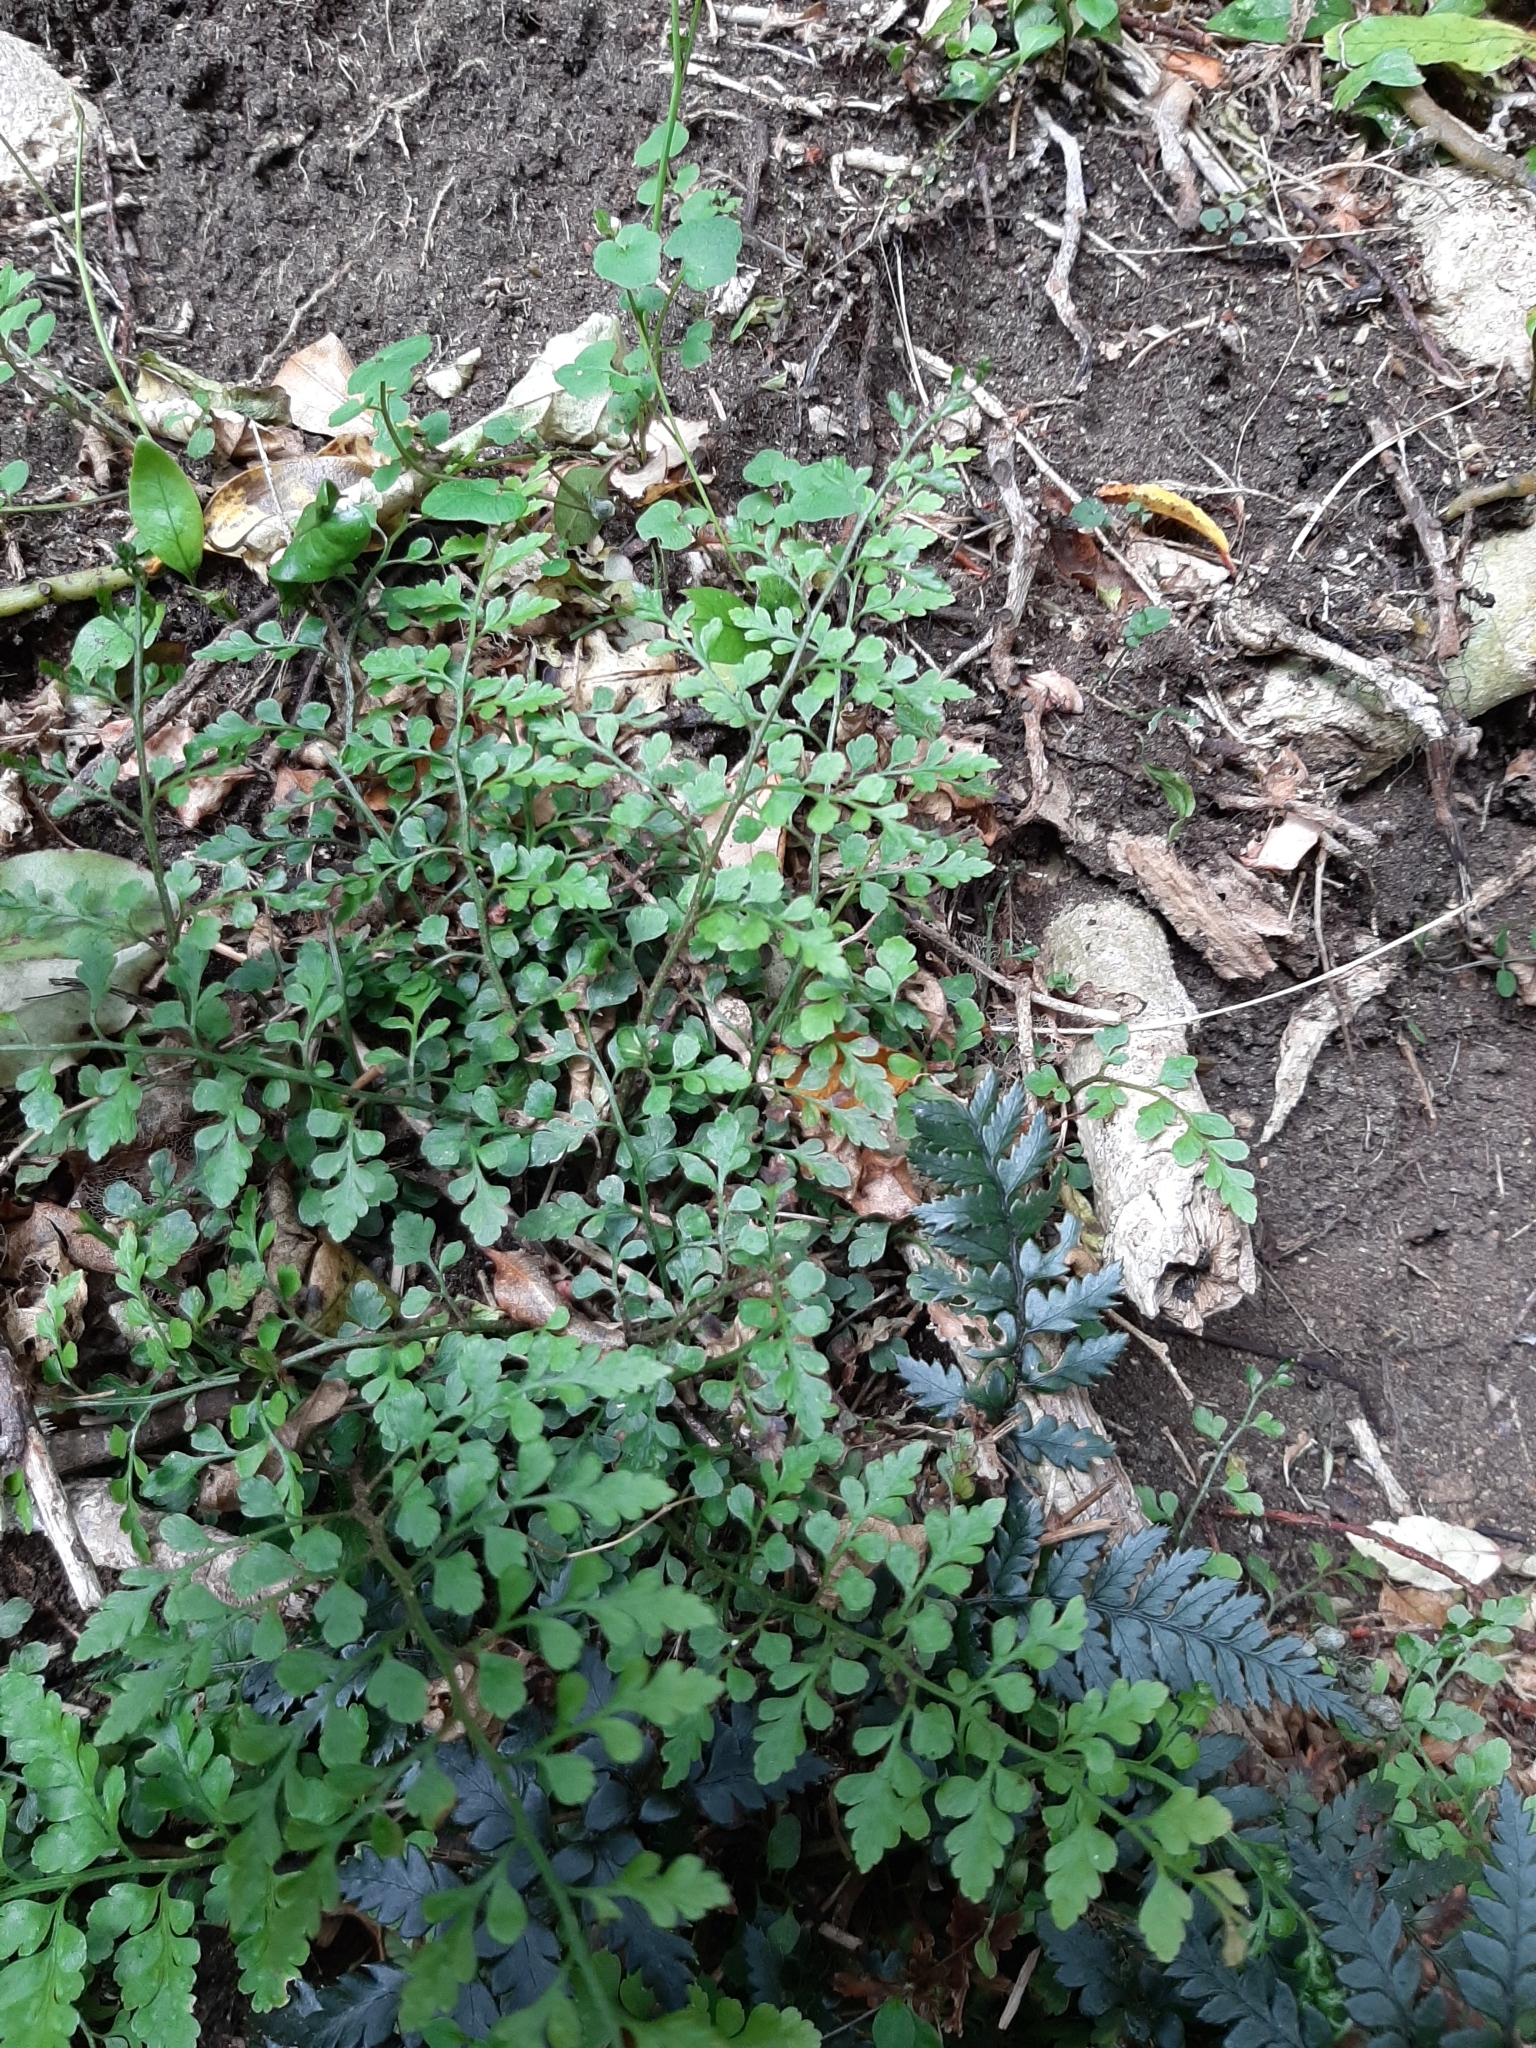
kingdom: Plantae
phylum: Tracheophyta
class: Polypodiopsida
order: Polypodiales
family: Aspleniaceae
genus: Asplenium
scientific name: Asplenium hookerianum
